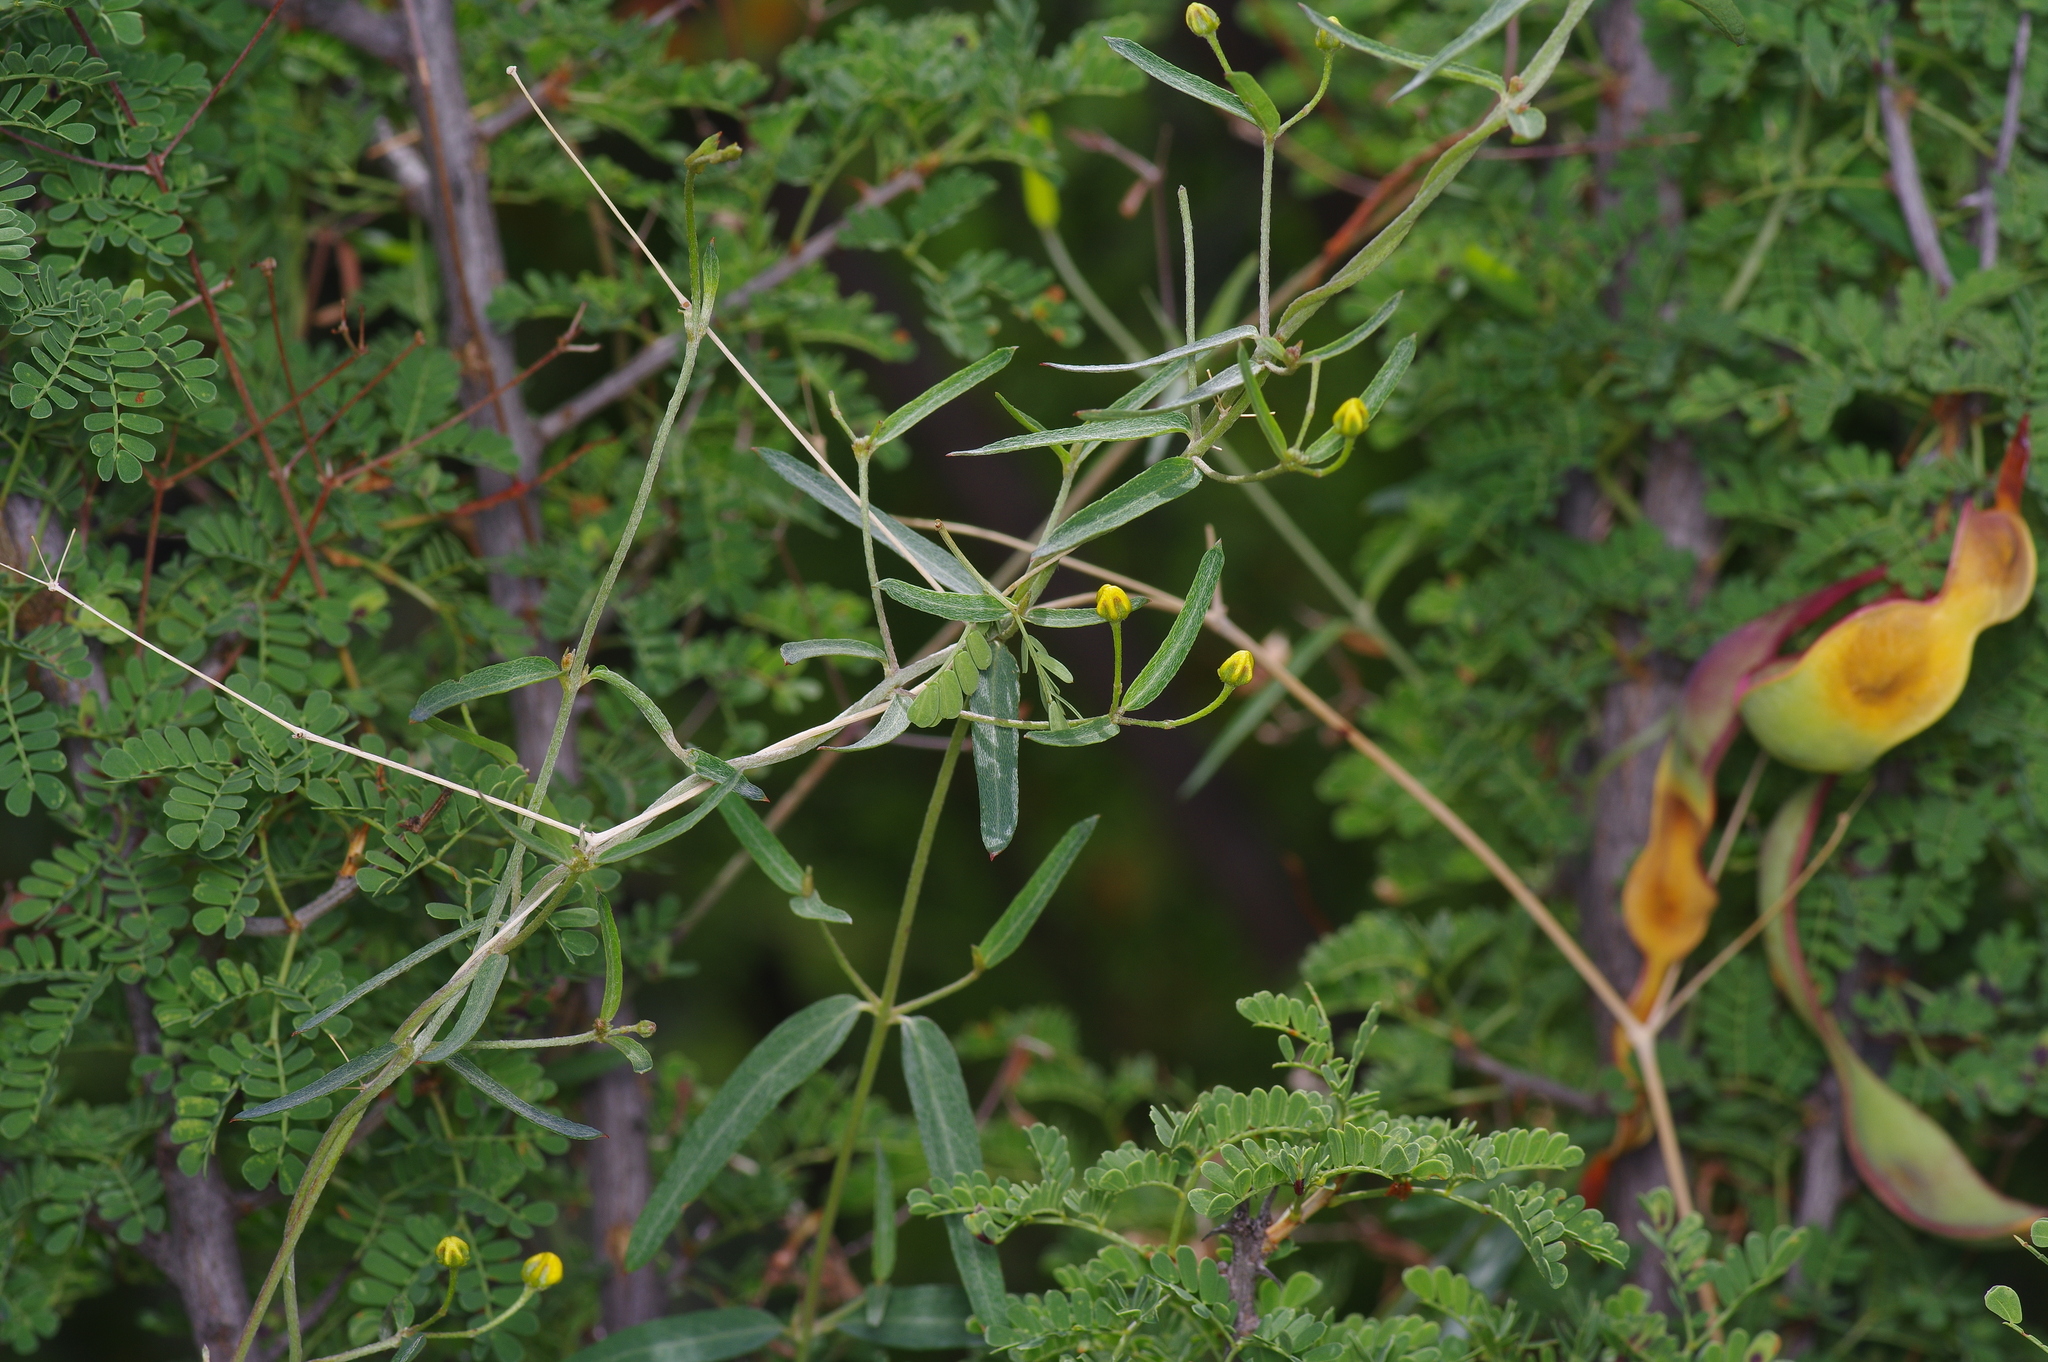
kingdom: Plantae
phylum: Tracheophyta
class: Magnoliopsida
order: Malpighiales
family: Malpighiaceae
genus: Cottsia
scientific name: Cottsia gracilis
